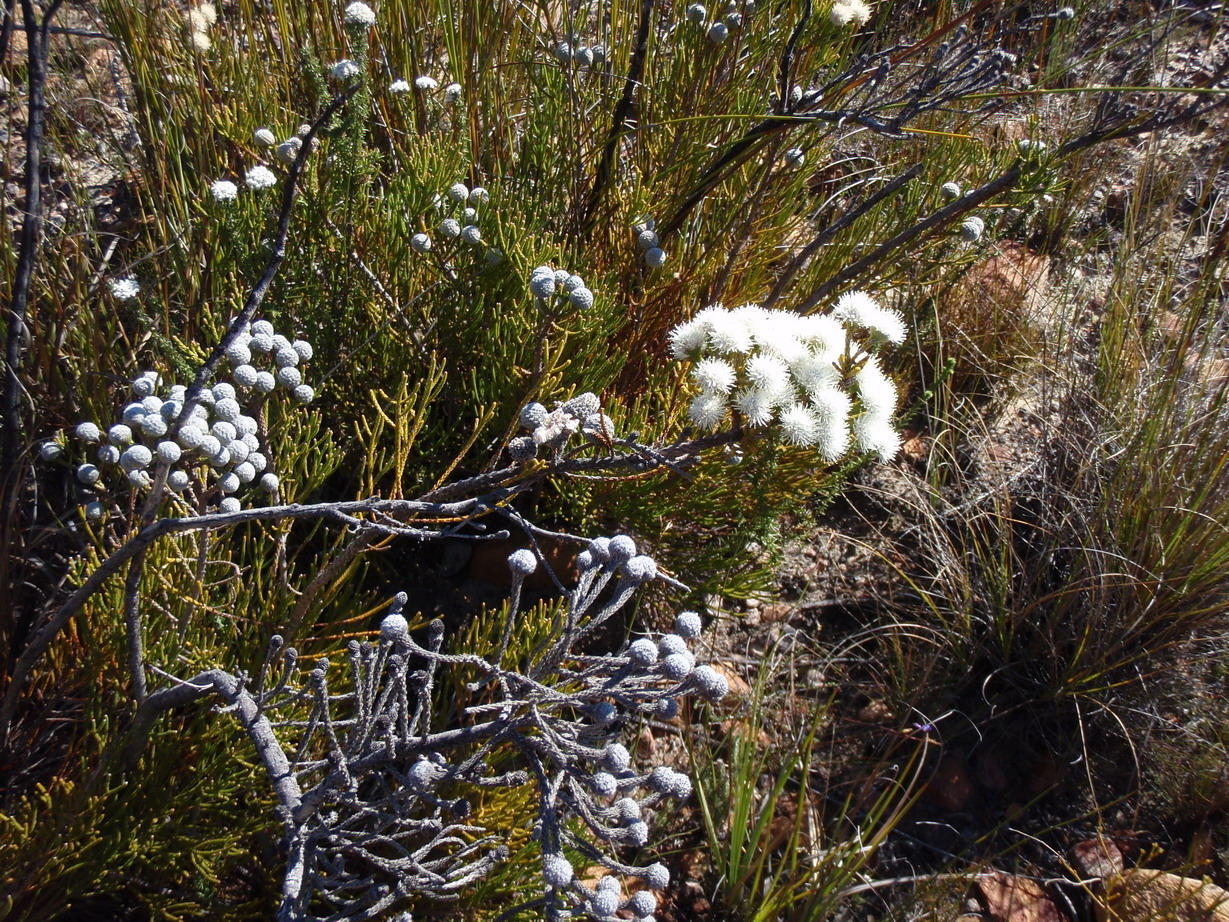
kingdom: Plantae
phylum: Tracheophyta
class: Magnoliopsida
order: Bruniales
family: Bruniaceae
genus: Brunia
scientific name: Brunia noduliflora
